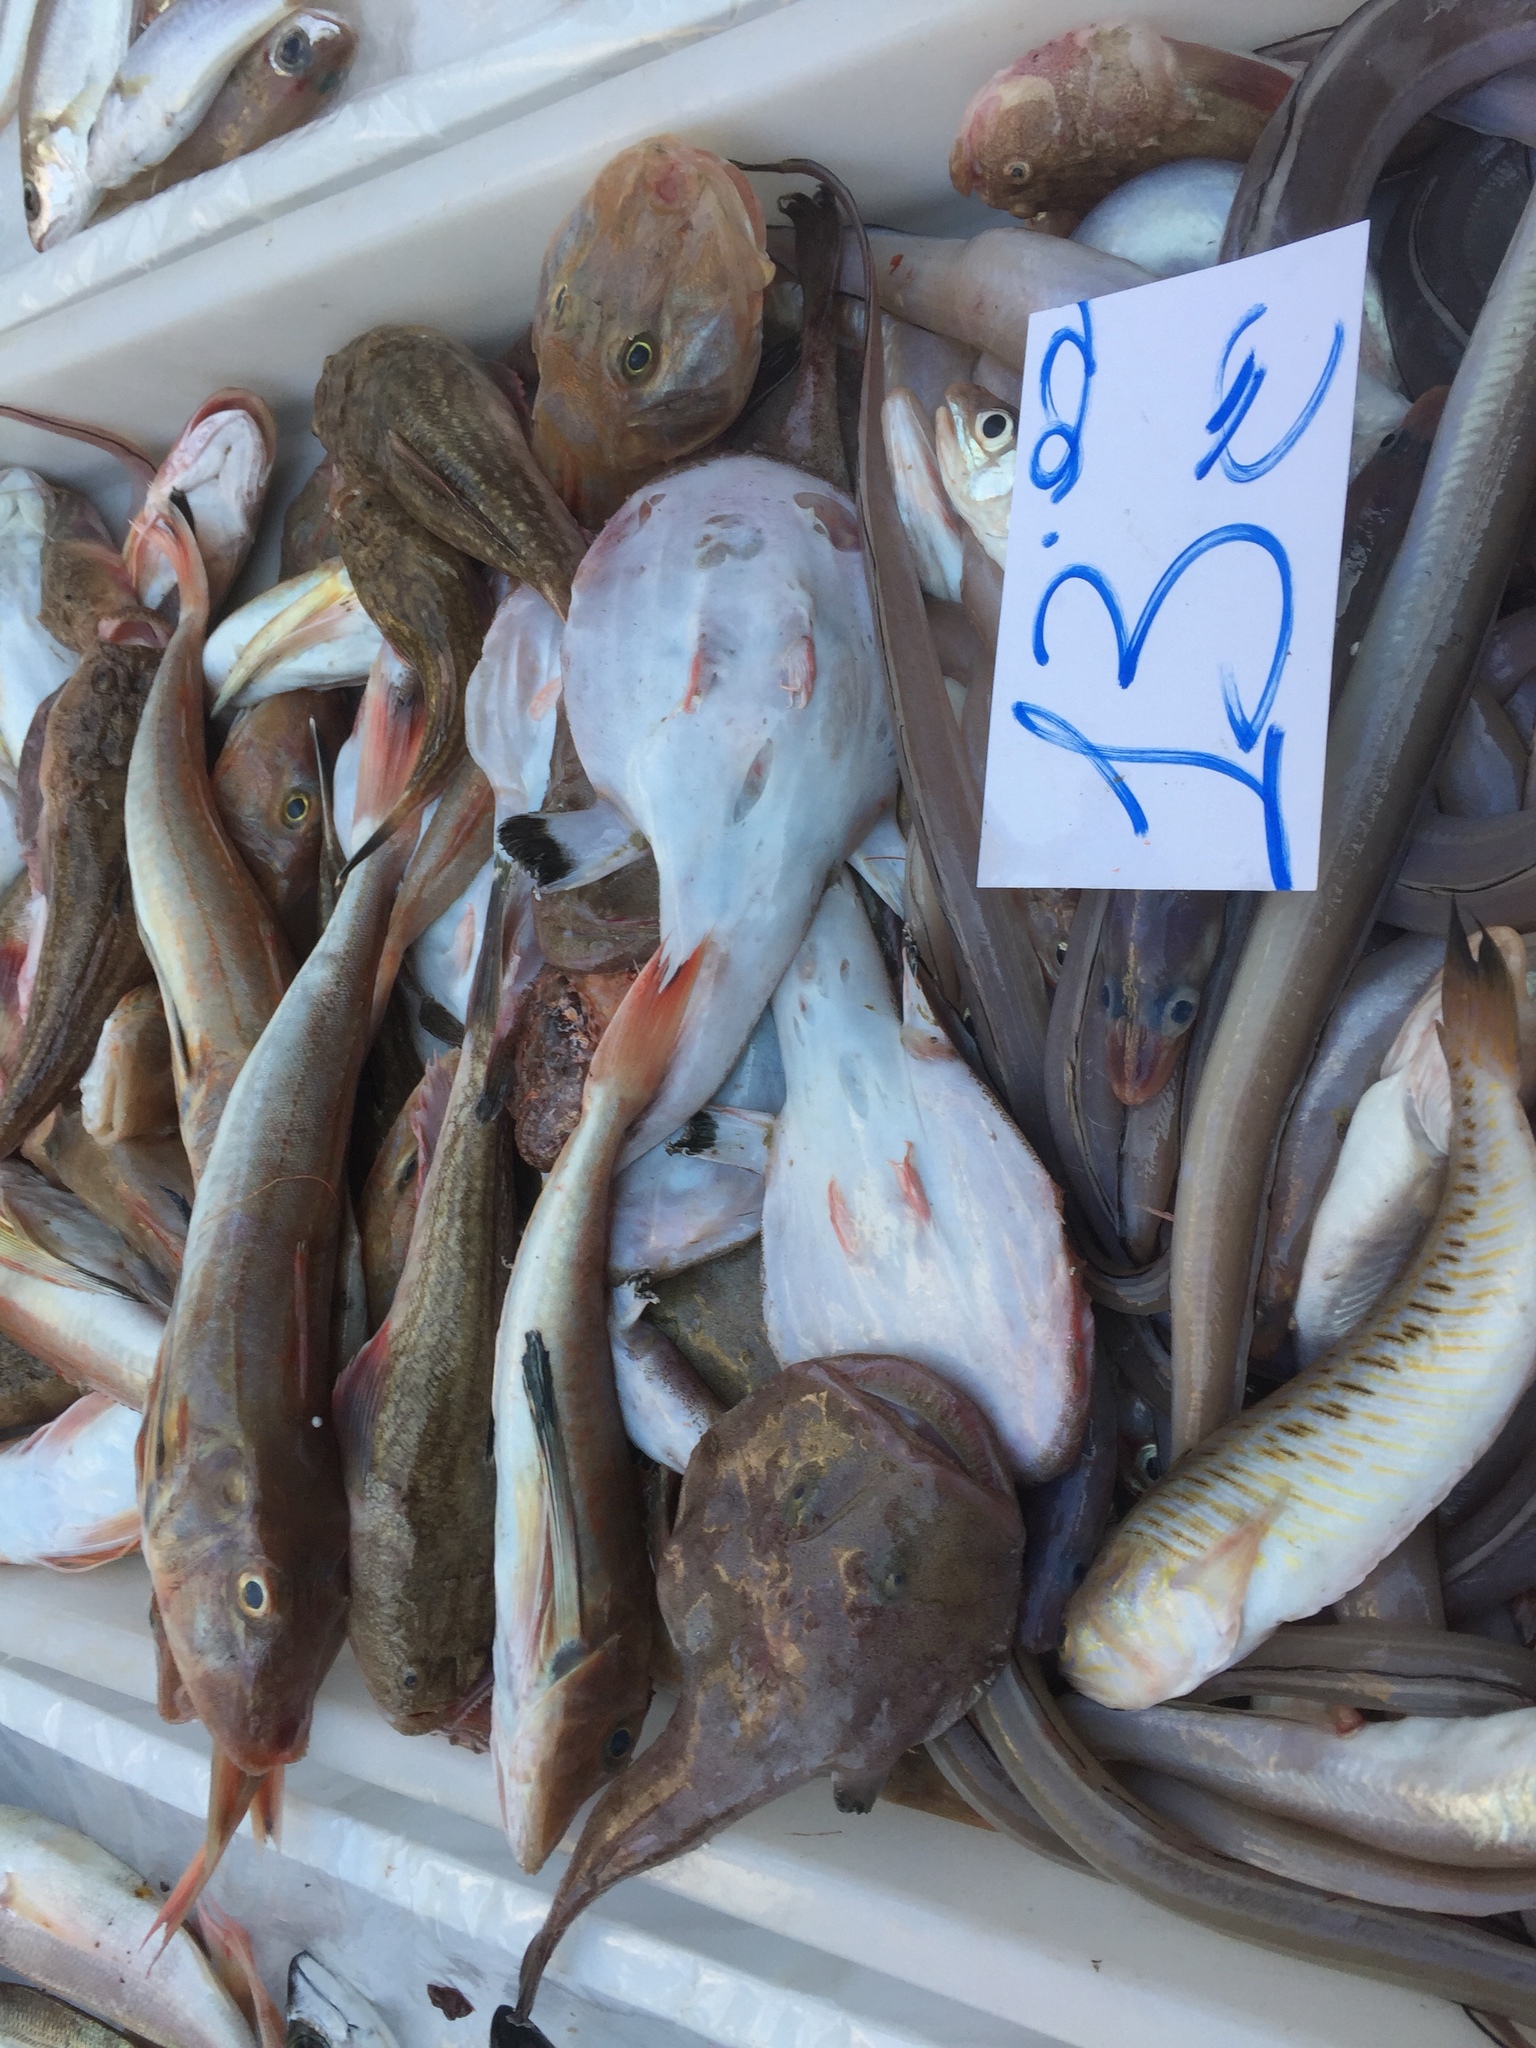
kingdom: Animalia
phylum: Chordata
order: Scorpaeniformes
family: Triglidae
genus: Chelidonichthys
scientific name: Chelidonichthys lucerna
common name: Tub gurnard
